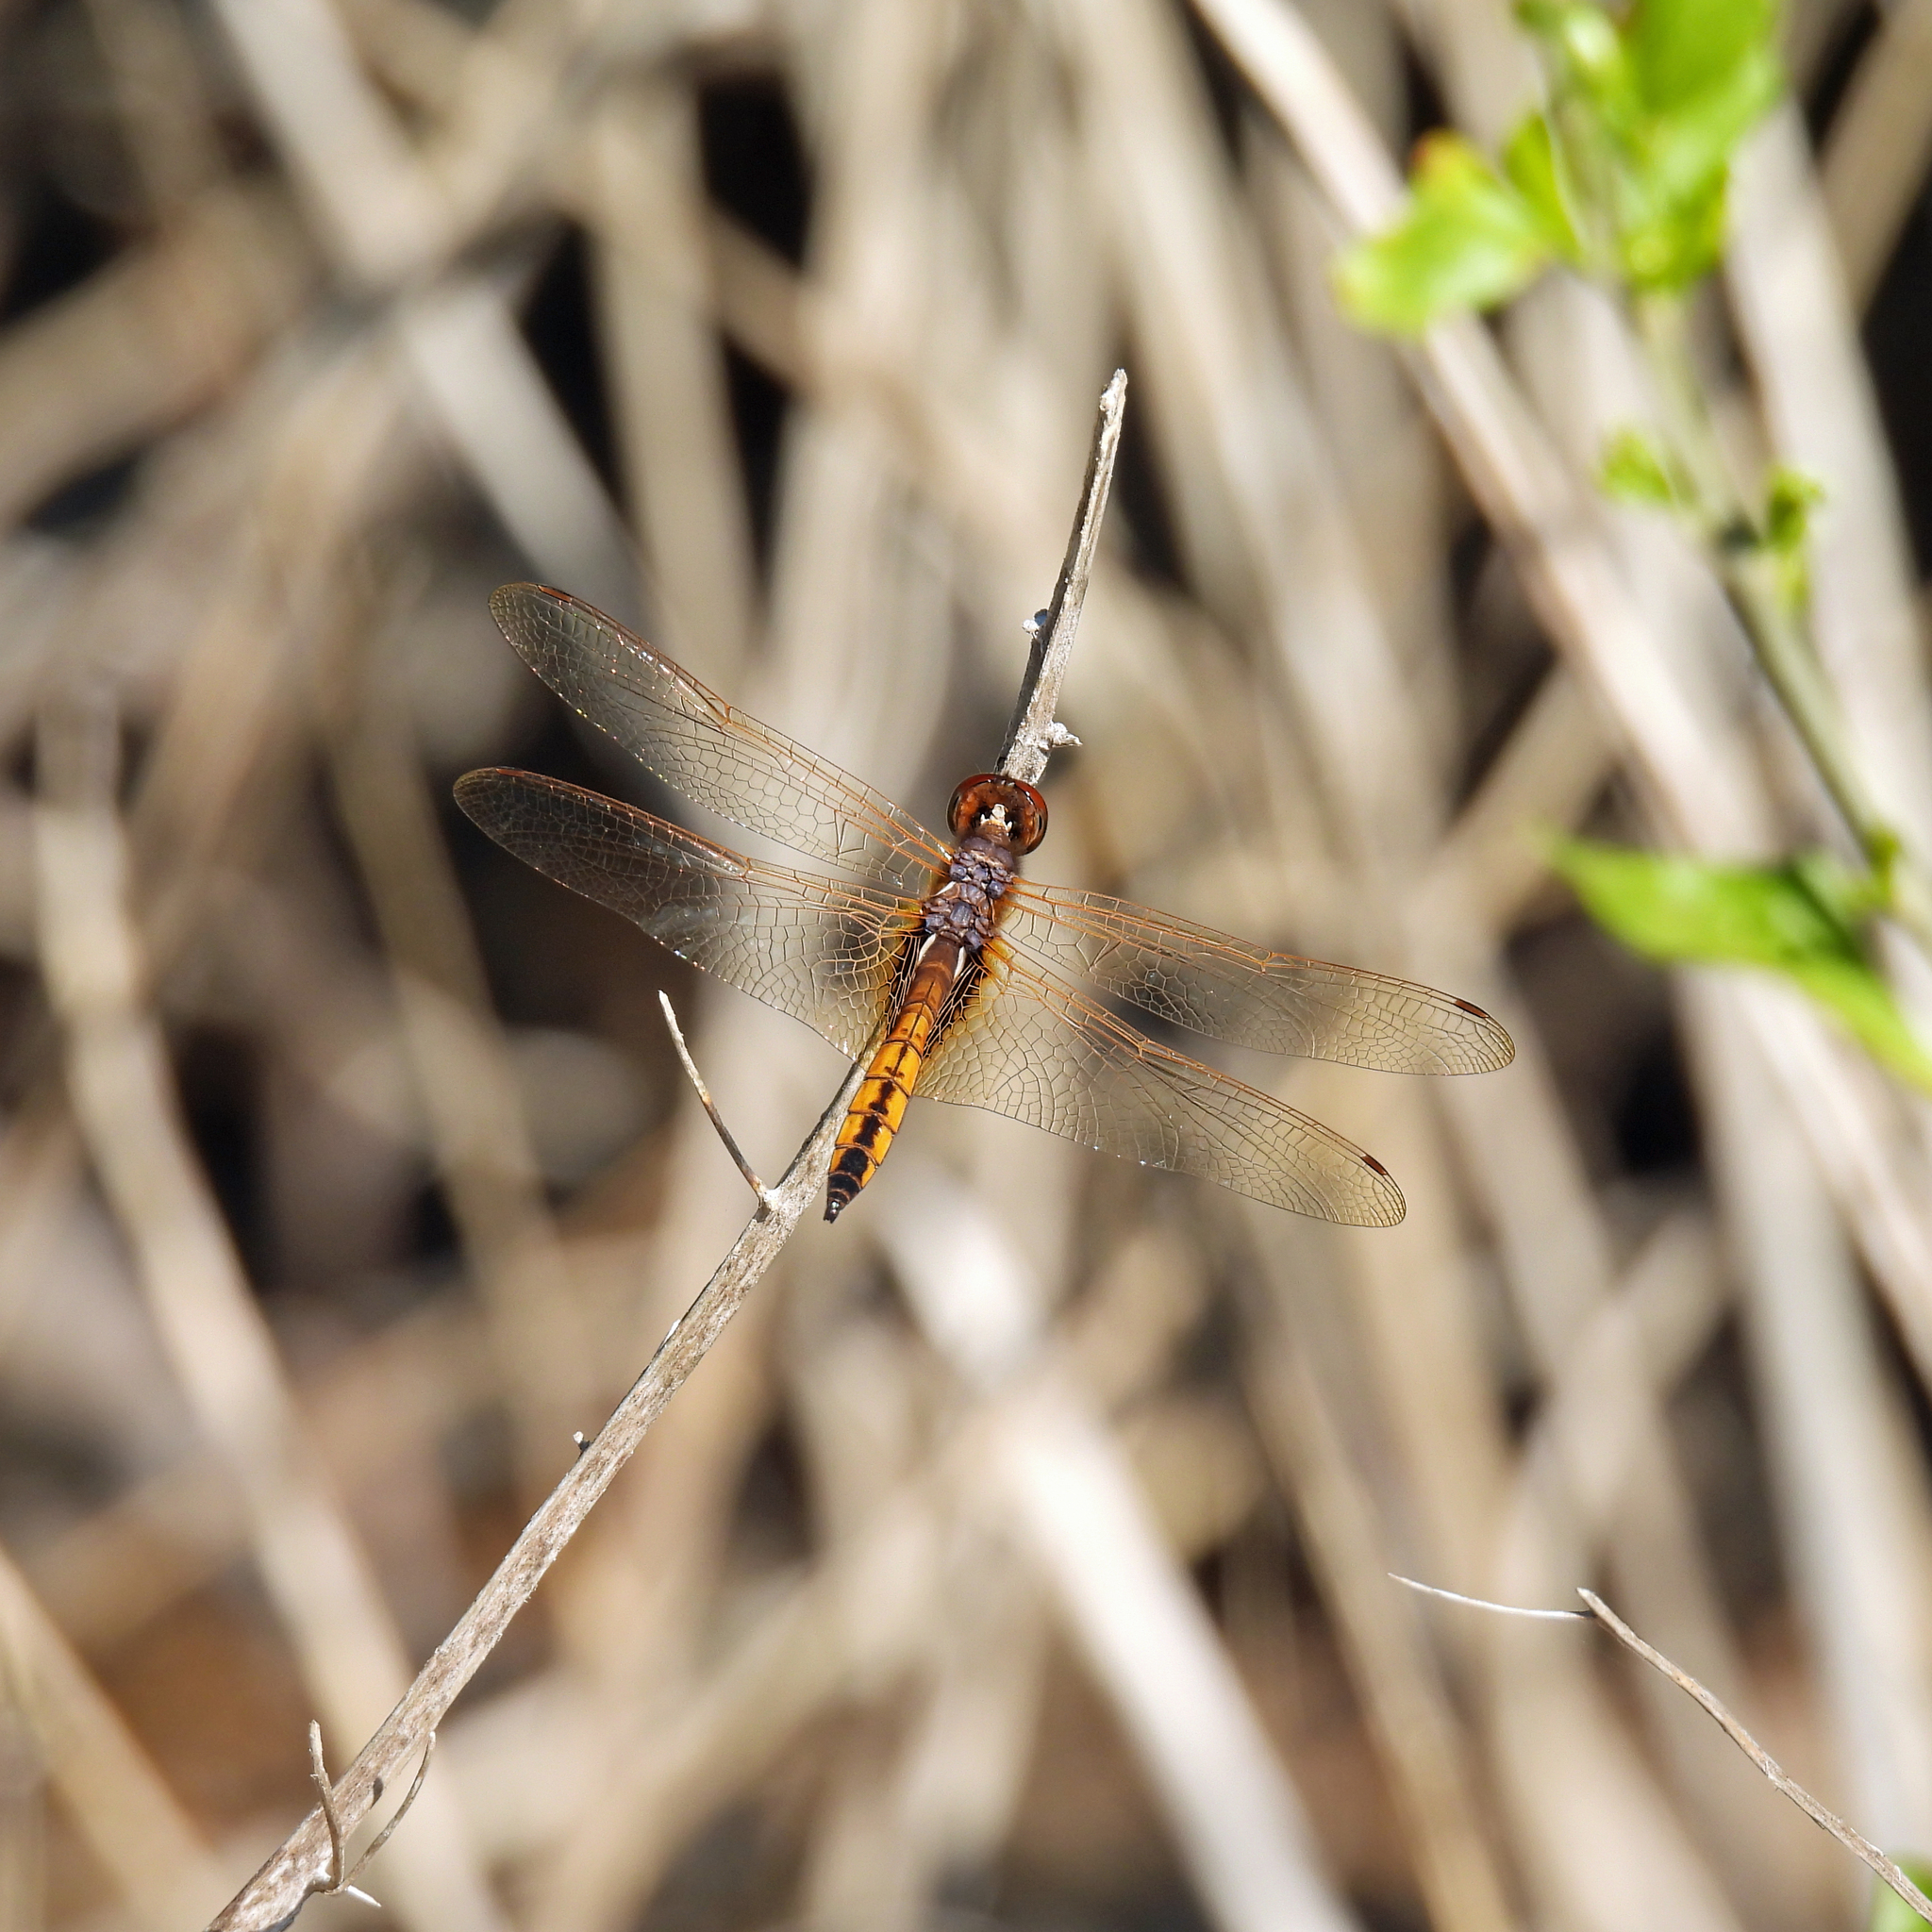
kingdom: Animalia
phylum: Arthropoda
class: Insecta
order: Odonata
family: Libellulidae
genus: Miathyria
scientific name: Miathyria marcella
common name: Hyacinth glider
